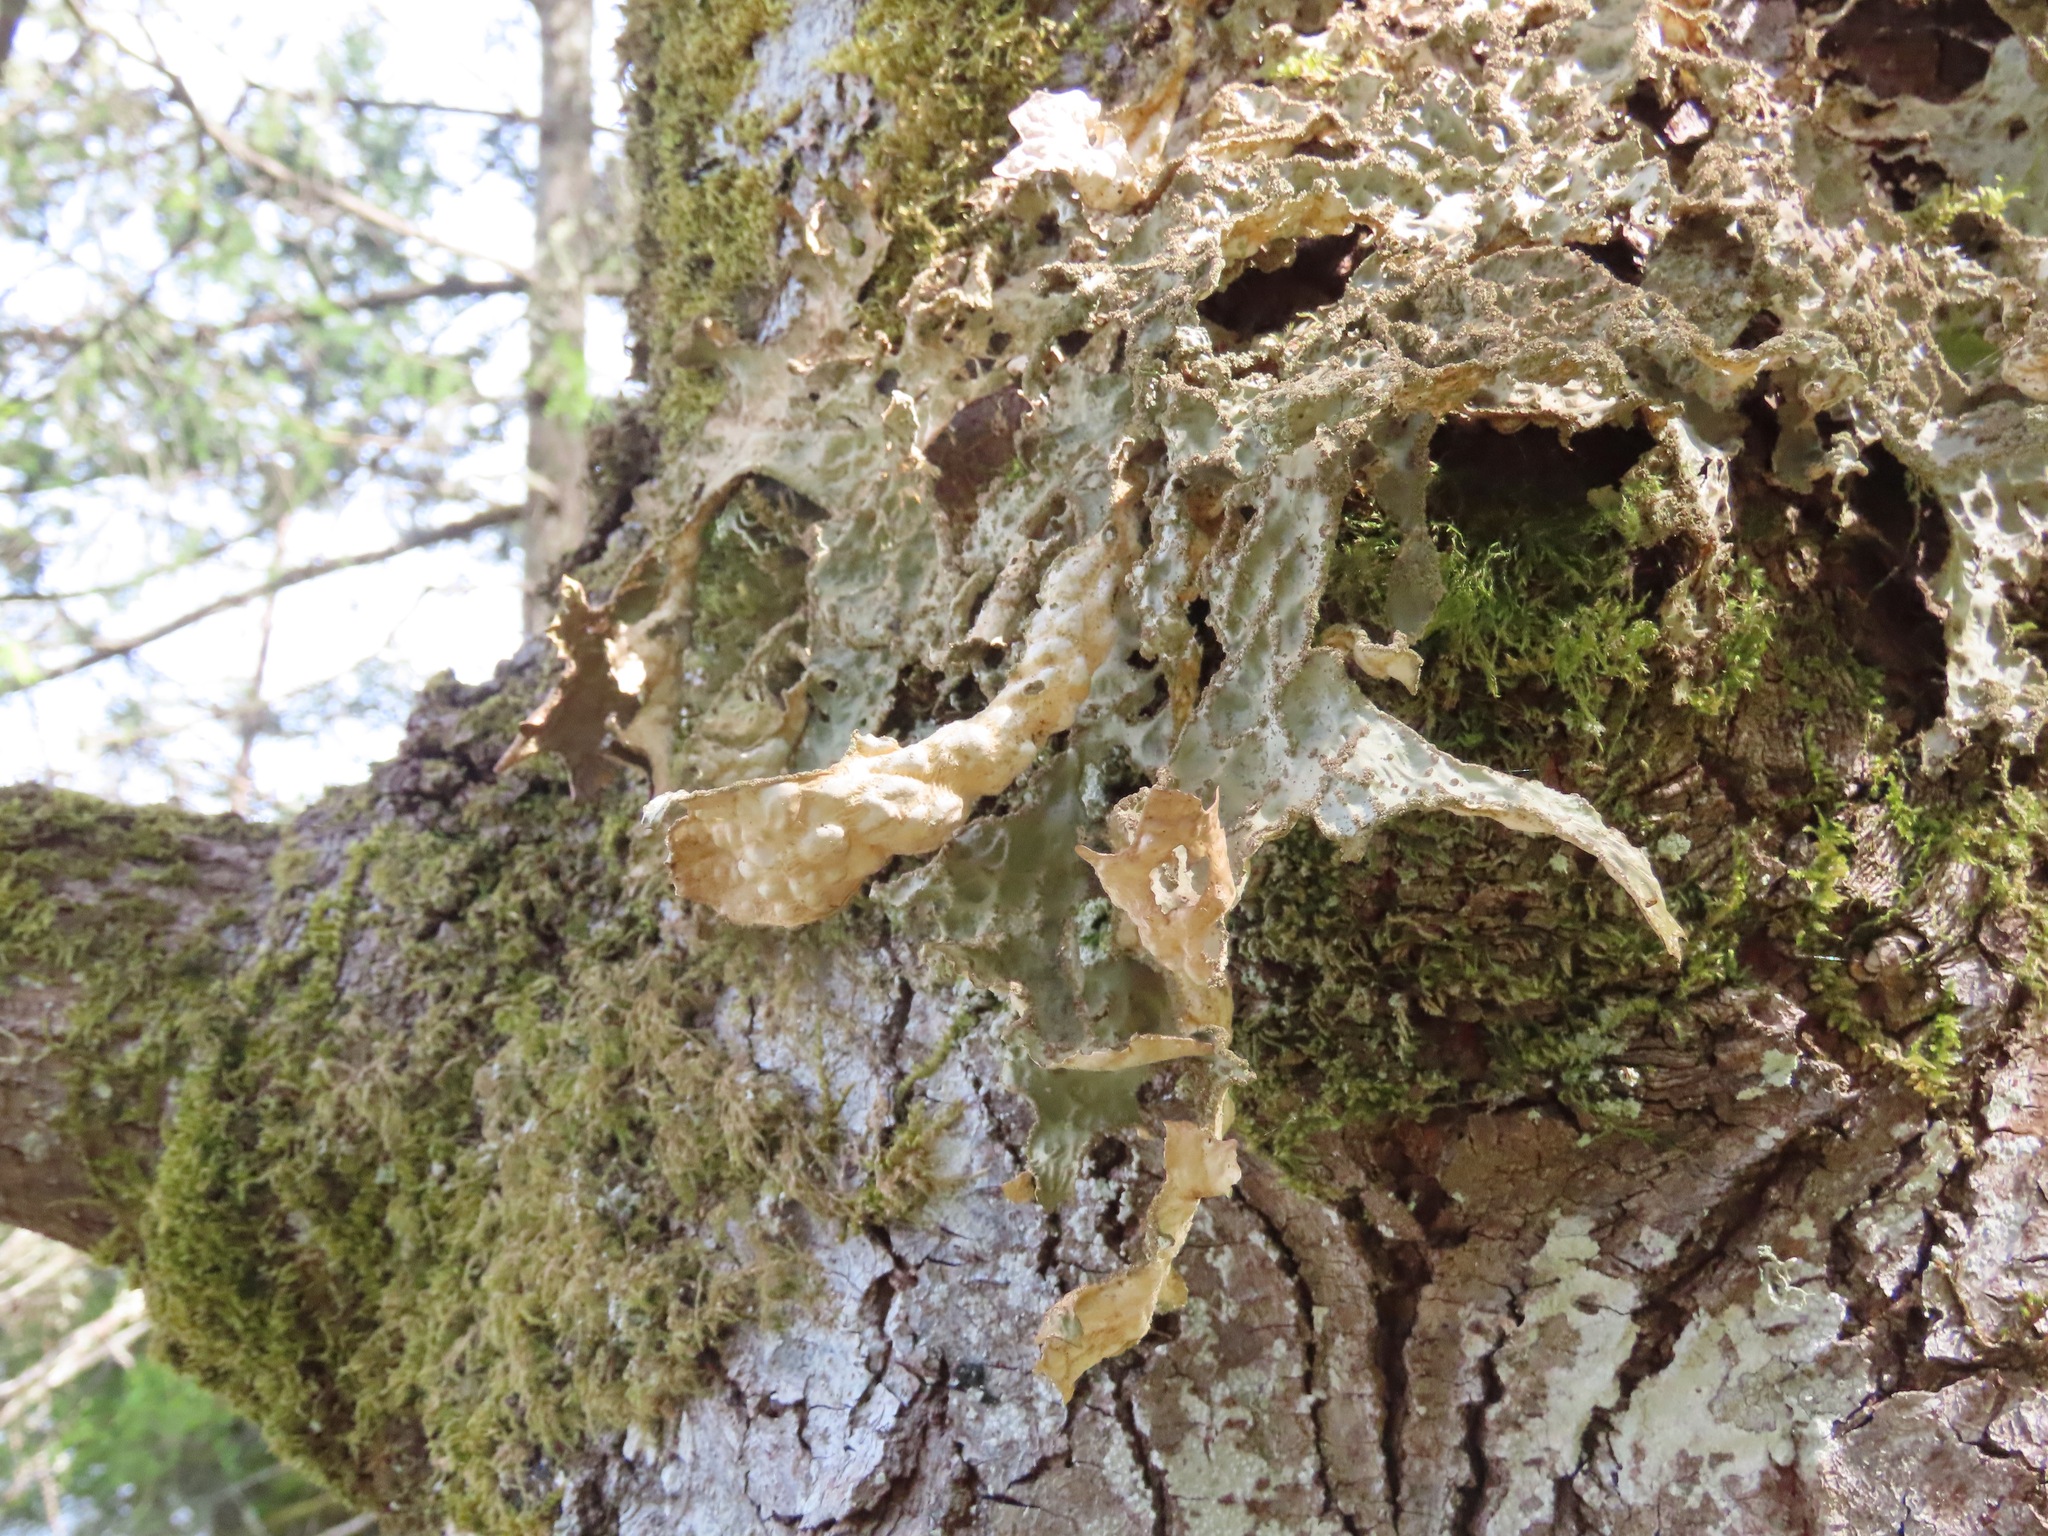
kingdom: Fungi
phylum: Ascomycota
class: Lecanoromycetes
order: Peltigerales
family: Lobariaceae
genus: Lobaria
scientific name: Lobaria pulmonaria
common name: Lungwort
